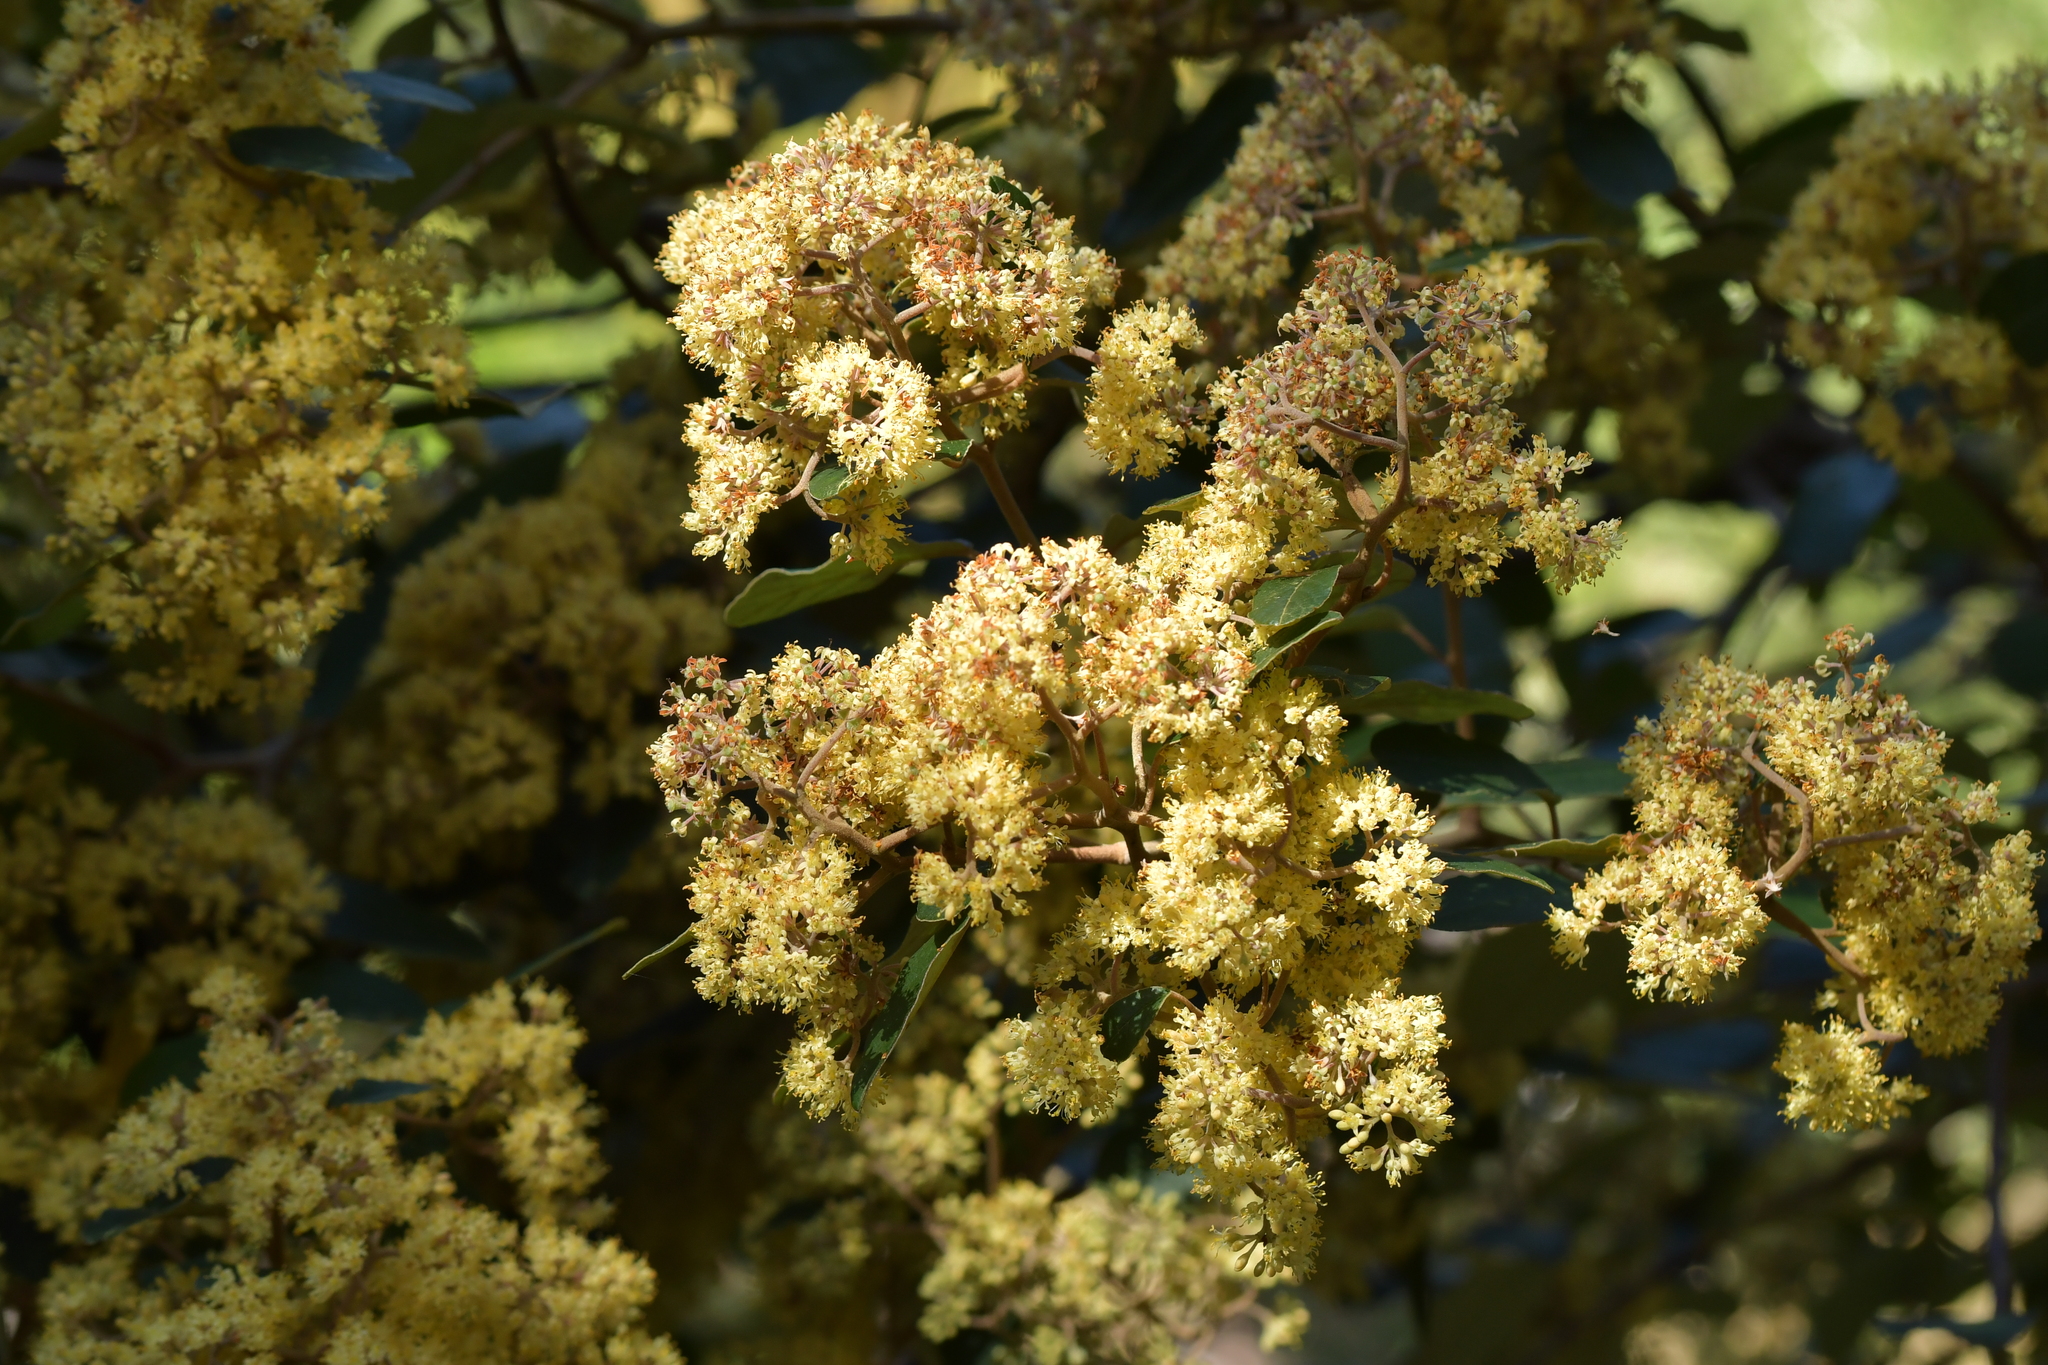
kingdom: Plantae
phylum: Tracheophyta
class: Magnoliopsida
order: Rosales
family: Rhamnaceae
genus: Pomaderris
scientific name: Pomaderris kumeraho
